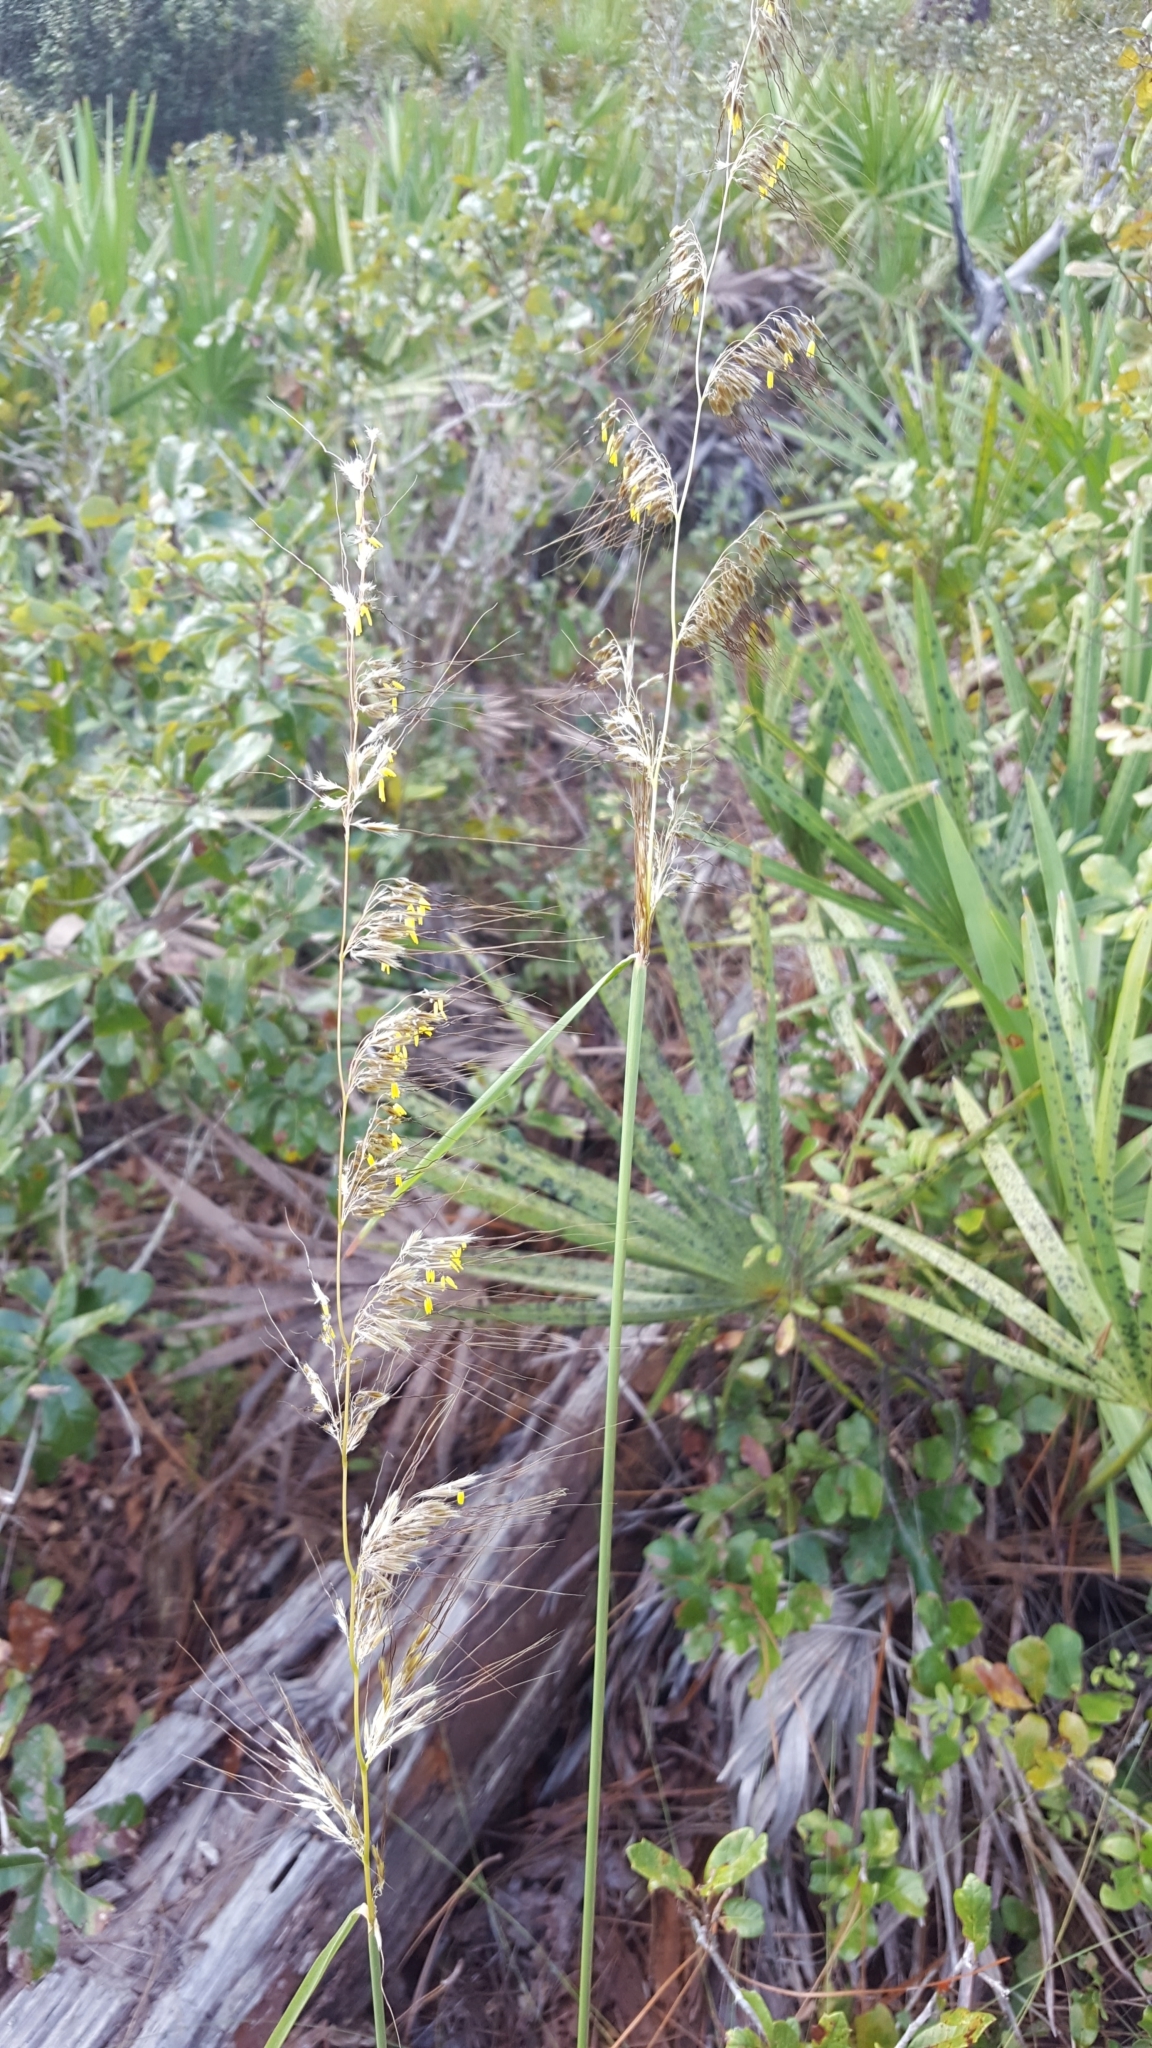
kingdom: Plantae
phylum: Tracheophyta
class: Liliopsida
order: Poales
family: Poaceae
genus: Sorghastrum
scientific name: Sorghastrum secundum
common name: Lopsided indian grass
